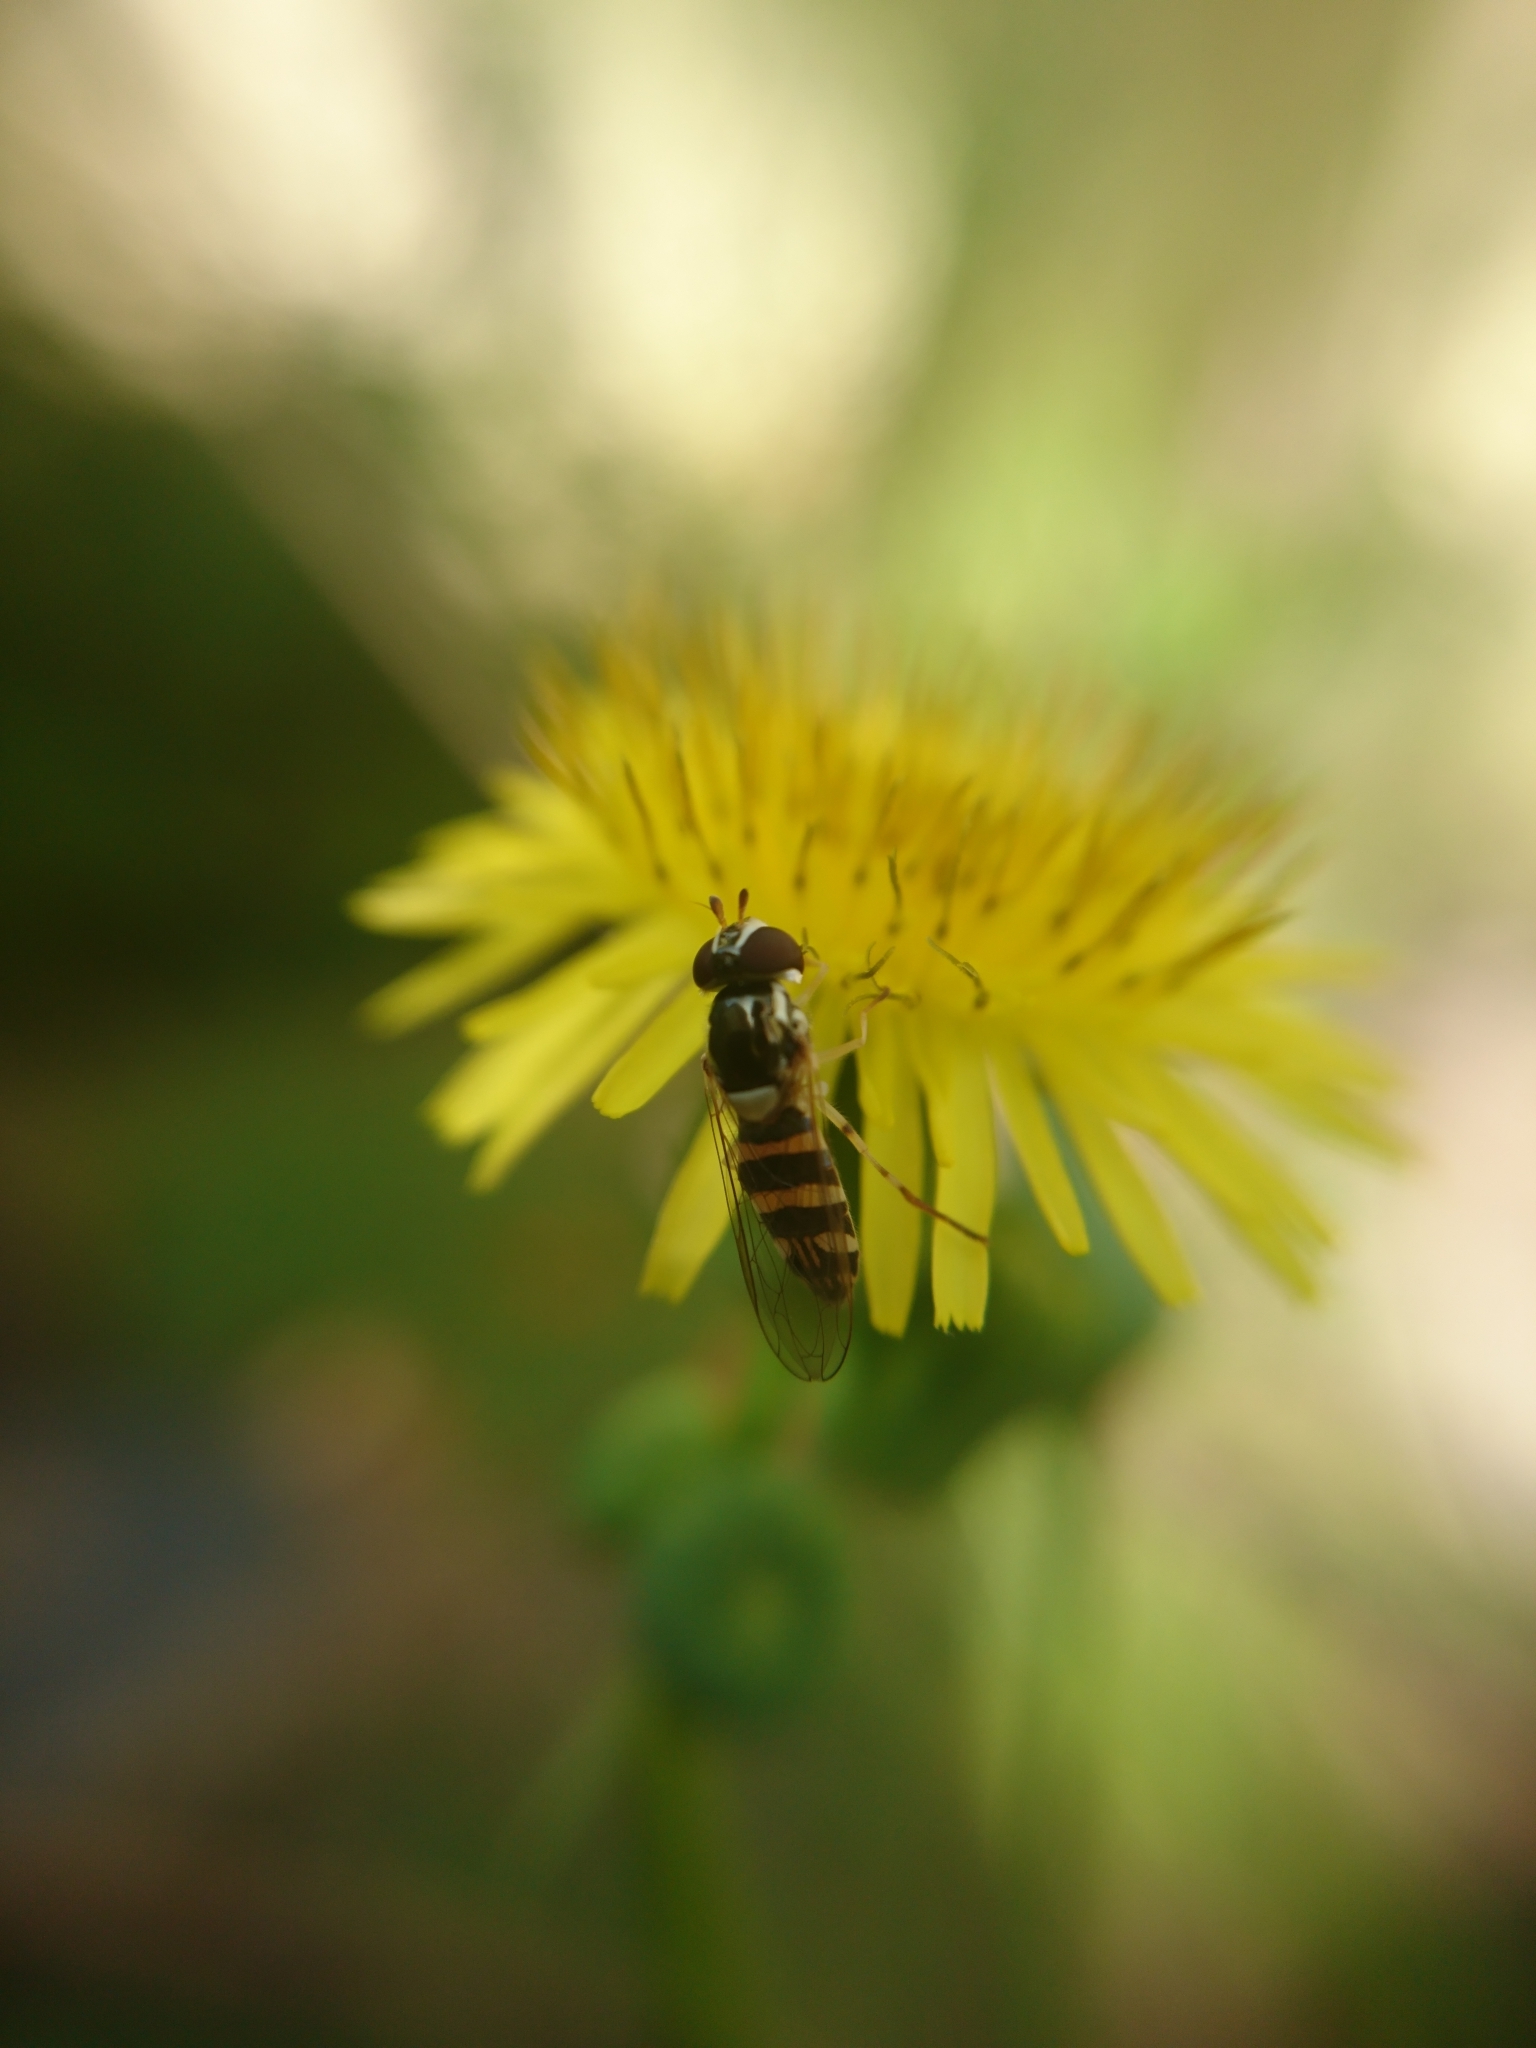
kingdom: Animalia
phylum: Arthropoda
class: Insecta
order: Diptera
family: Syrphidae
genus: Allograpta
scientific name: Allograpta
